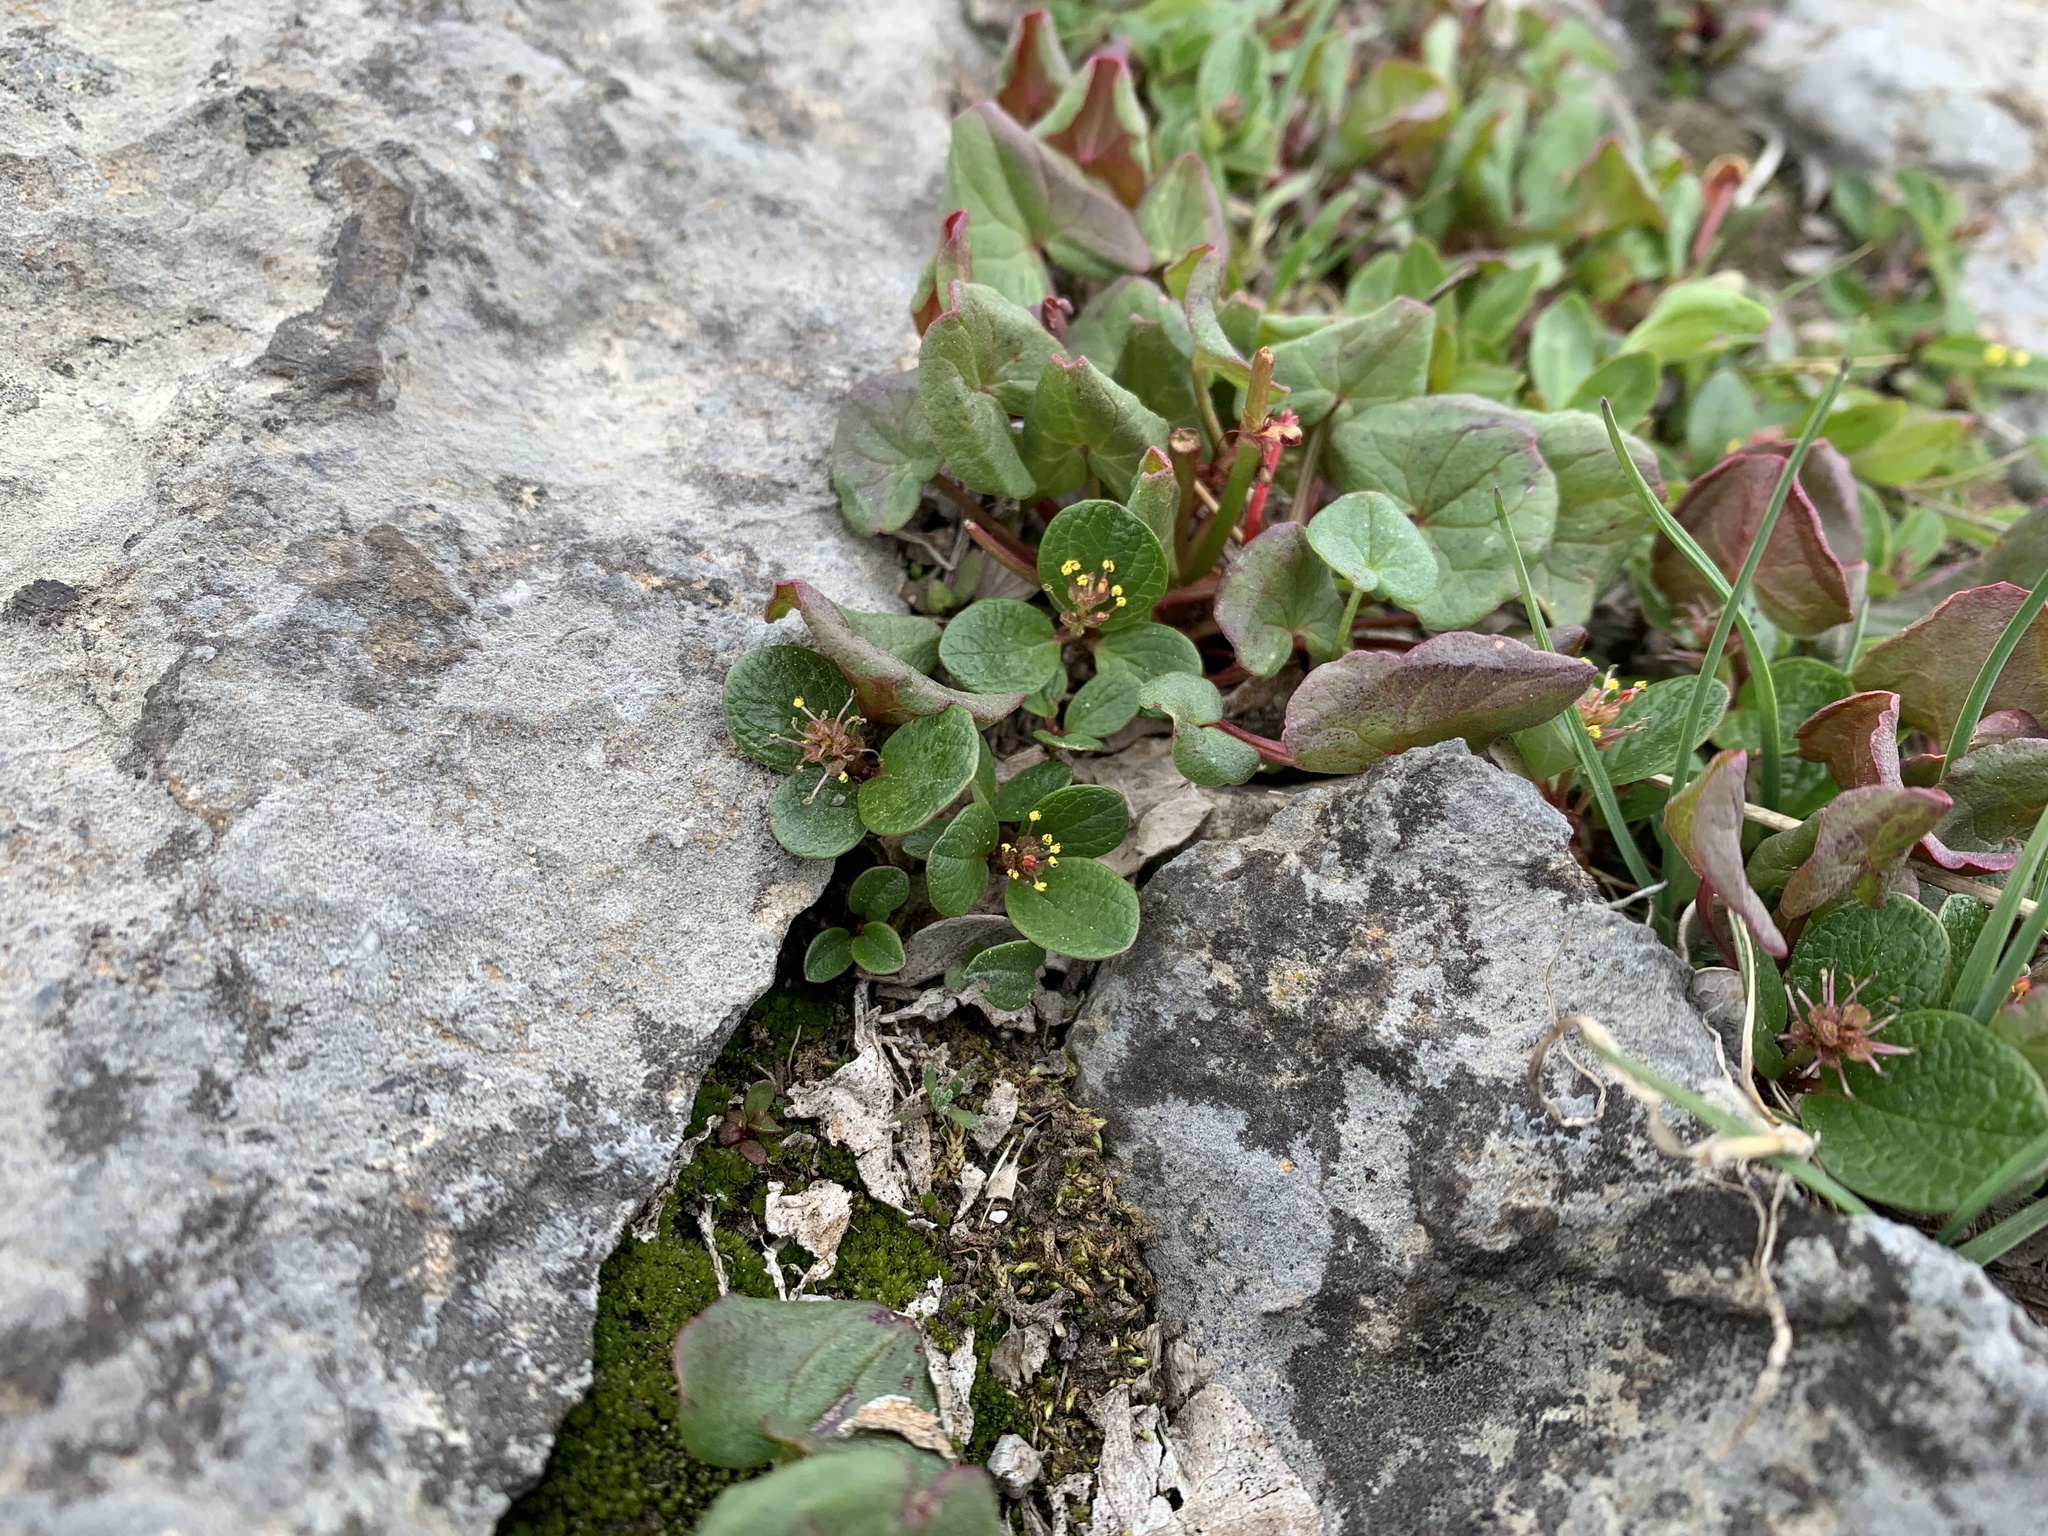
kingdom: Plantae
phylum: Tracheophyta
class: Magnoliopsida
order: Malpighiales
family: Salicaceae
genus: Salix
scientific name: Salix nivalis
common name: Dwarf snow willow
